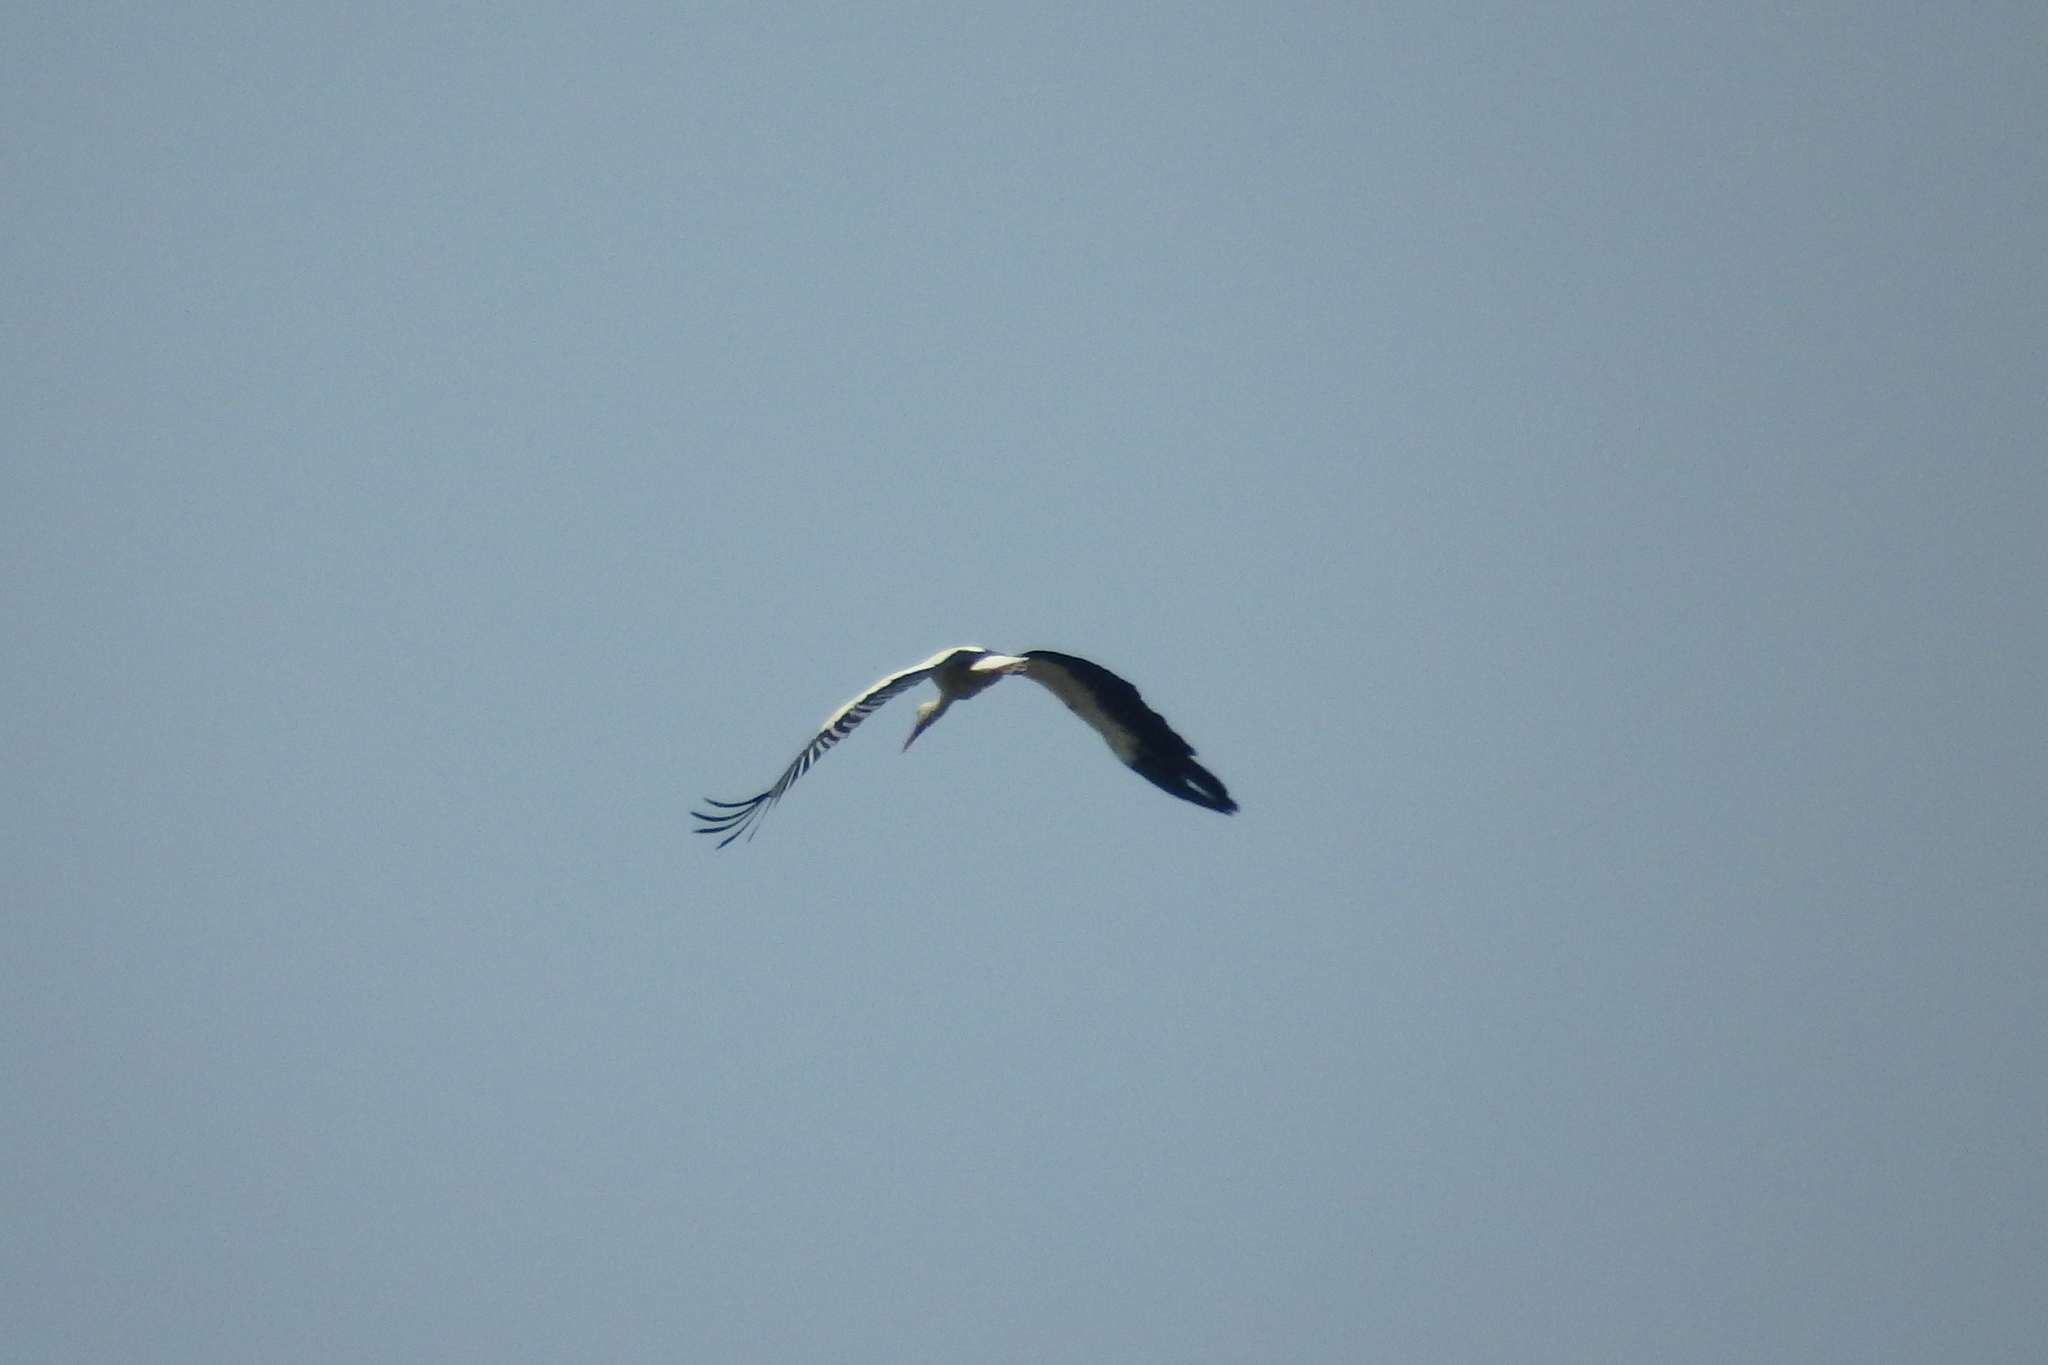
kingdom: Animalia
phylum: Chordata
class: Aves
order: Ciconiiformes
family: Ciconiidae
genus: Ciconia
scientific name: Ciconia ciconia
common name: White stork
